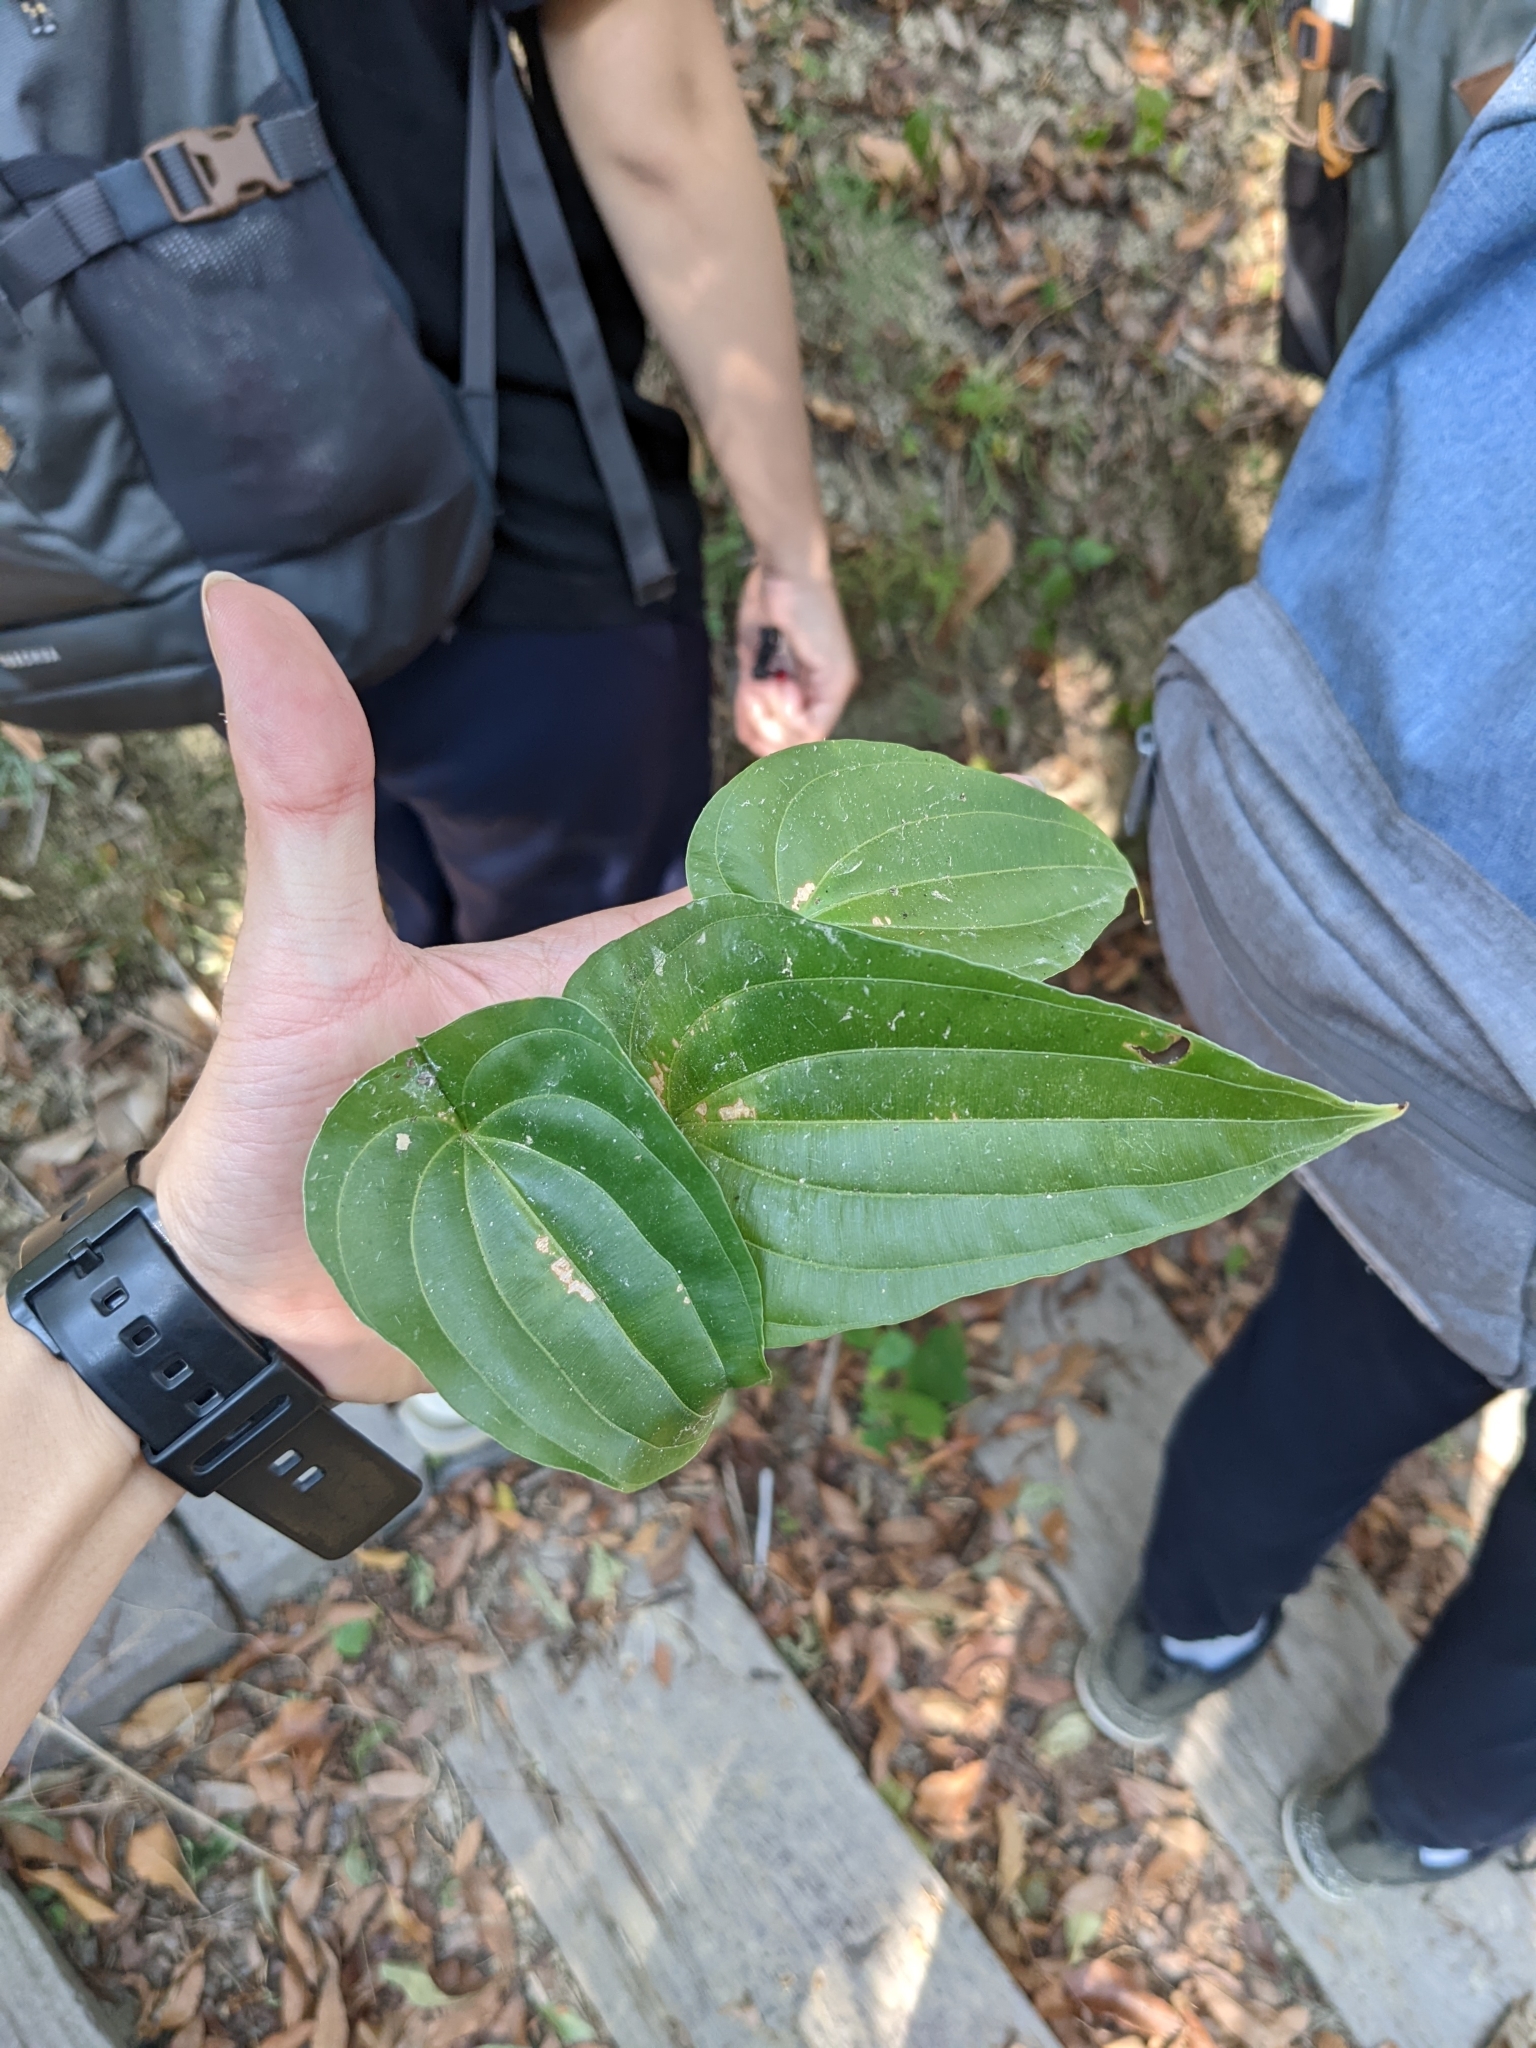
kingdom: Plantae
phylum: Tracheophyta
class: Liliopsida
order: Pandanales
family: Stemonaceae
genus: Stemona
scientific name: Stemona tuberosa
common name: Stemona
